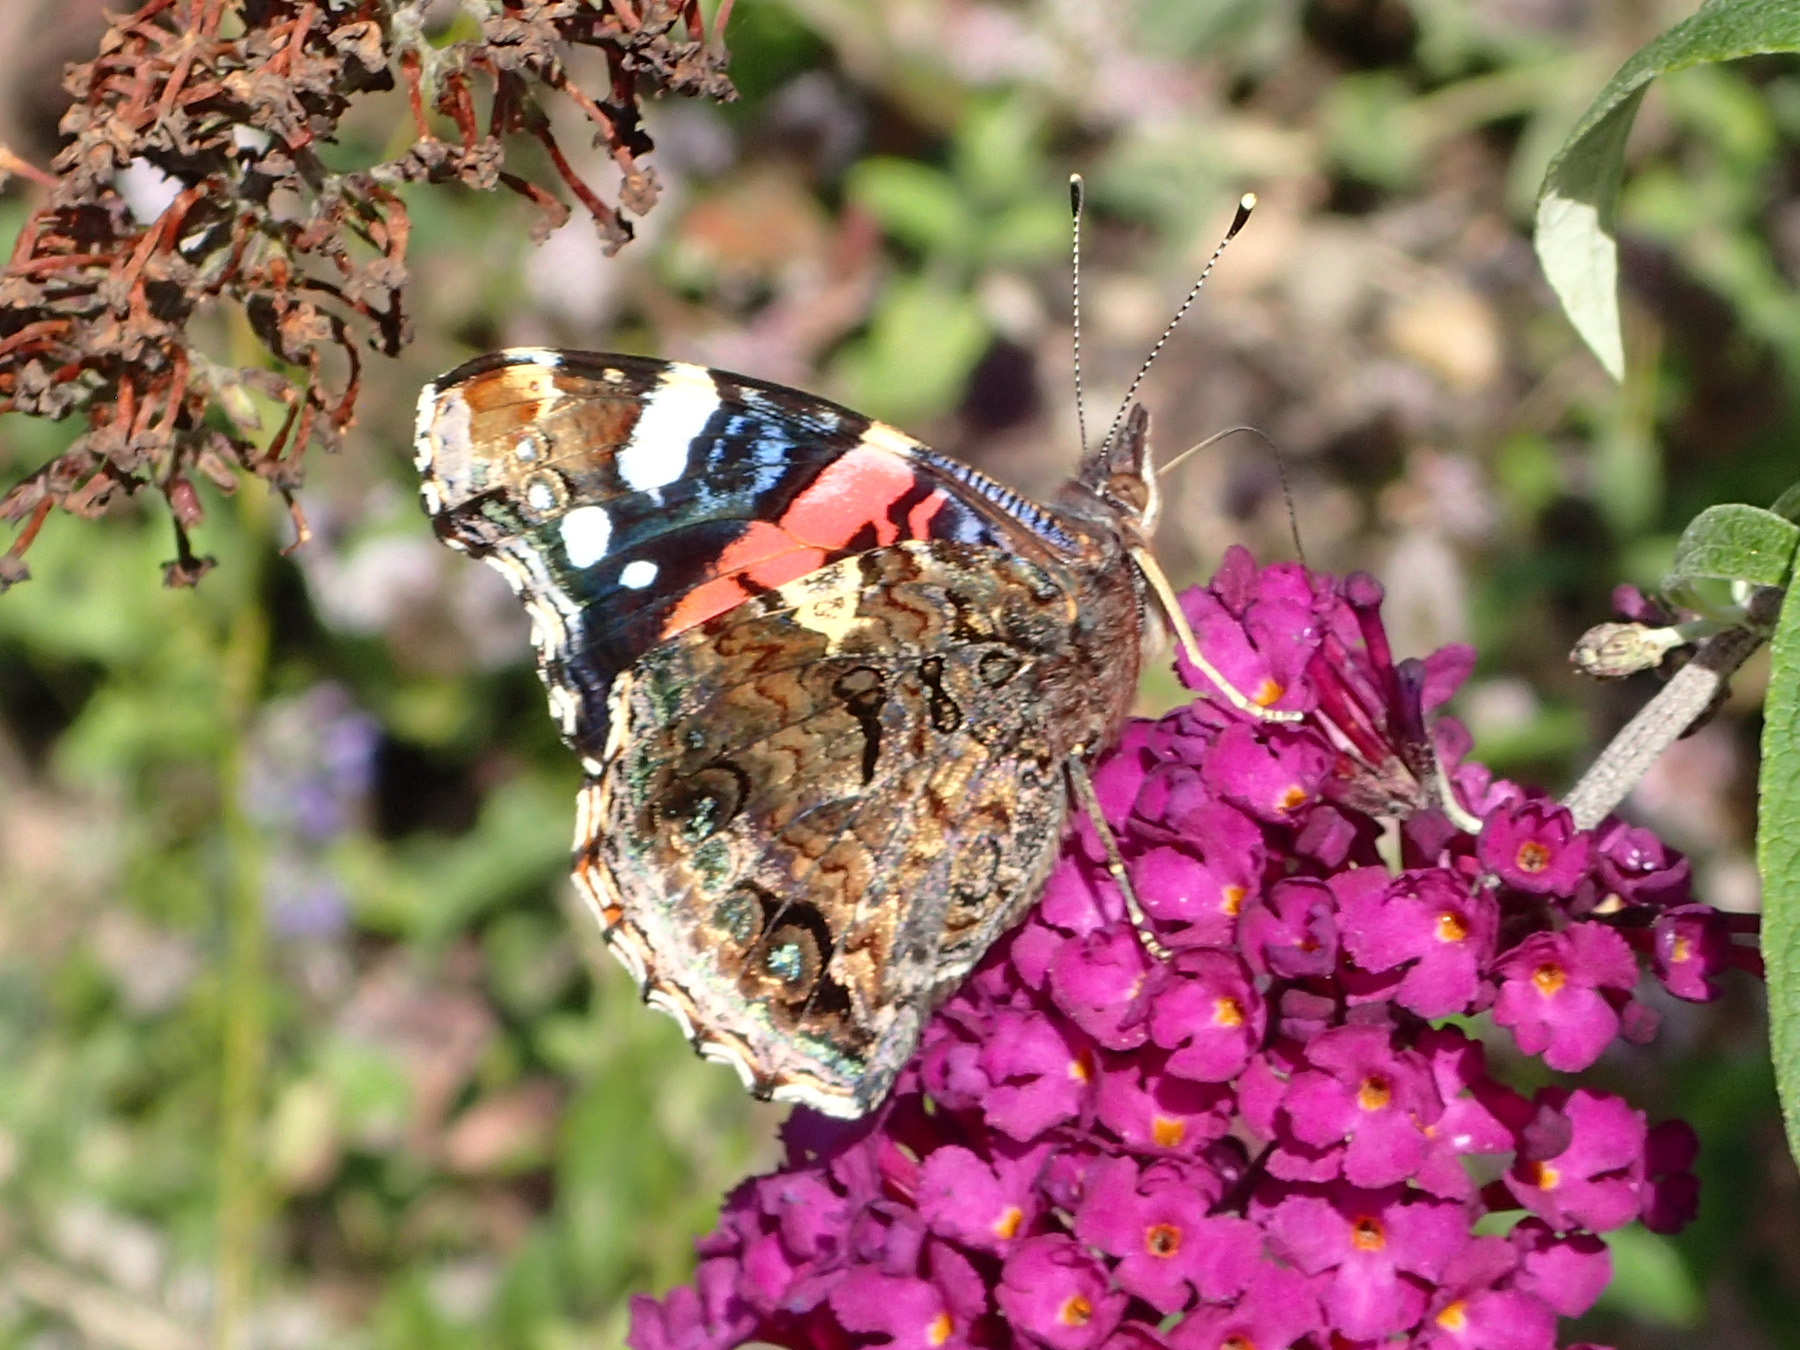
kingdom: Animalia
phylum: Arthropoda
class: Insecta
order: Lepidoptera
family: Nymphalidae
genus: Vanessa
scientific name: Vanessa atalanta
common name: Red admiral
